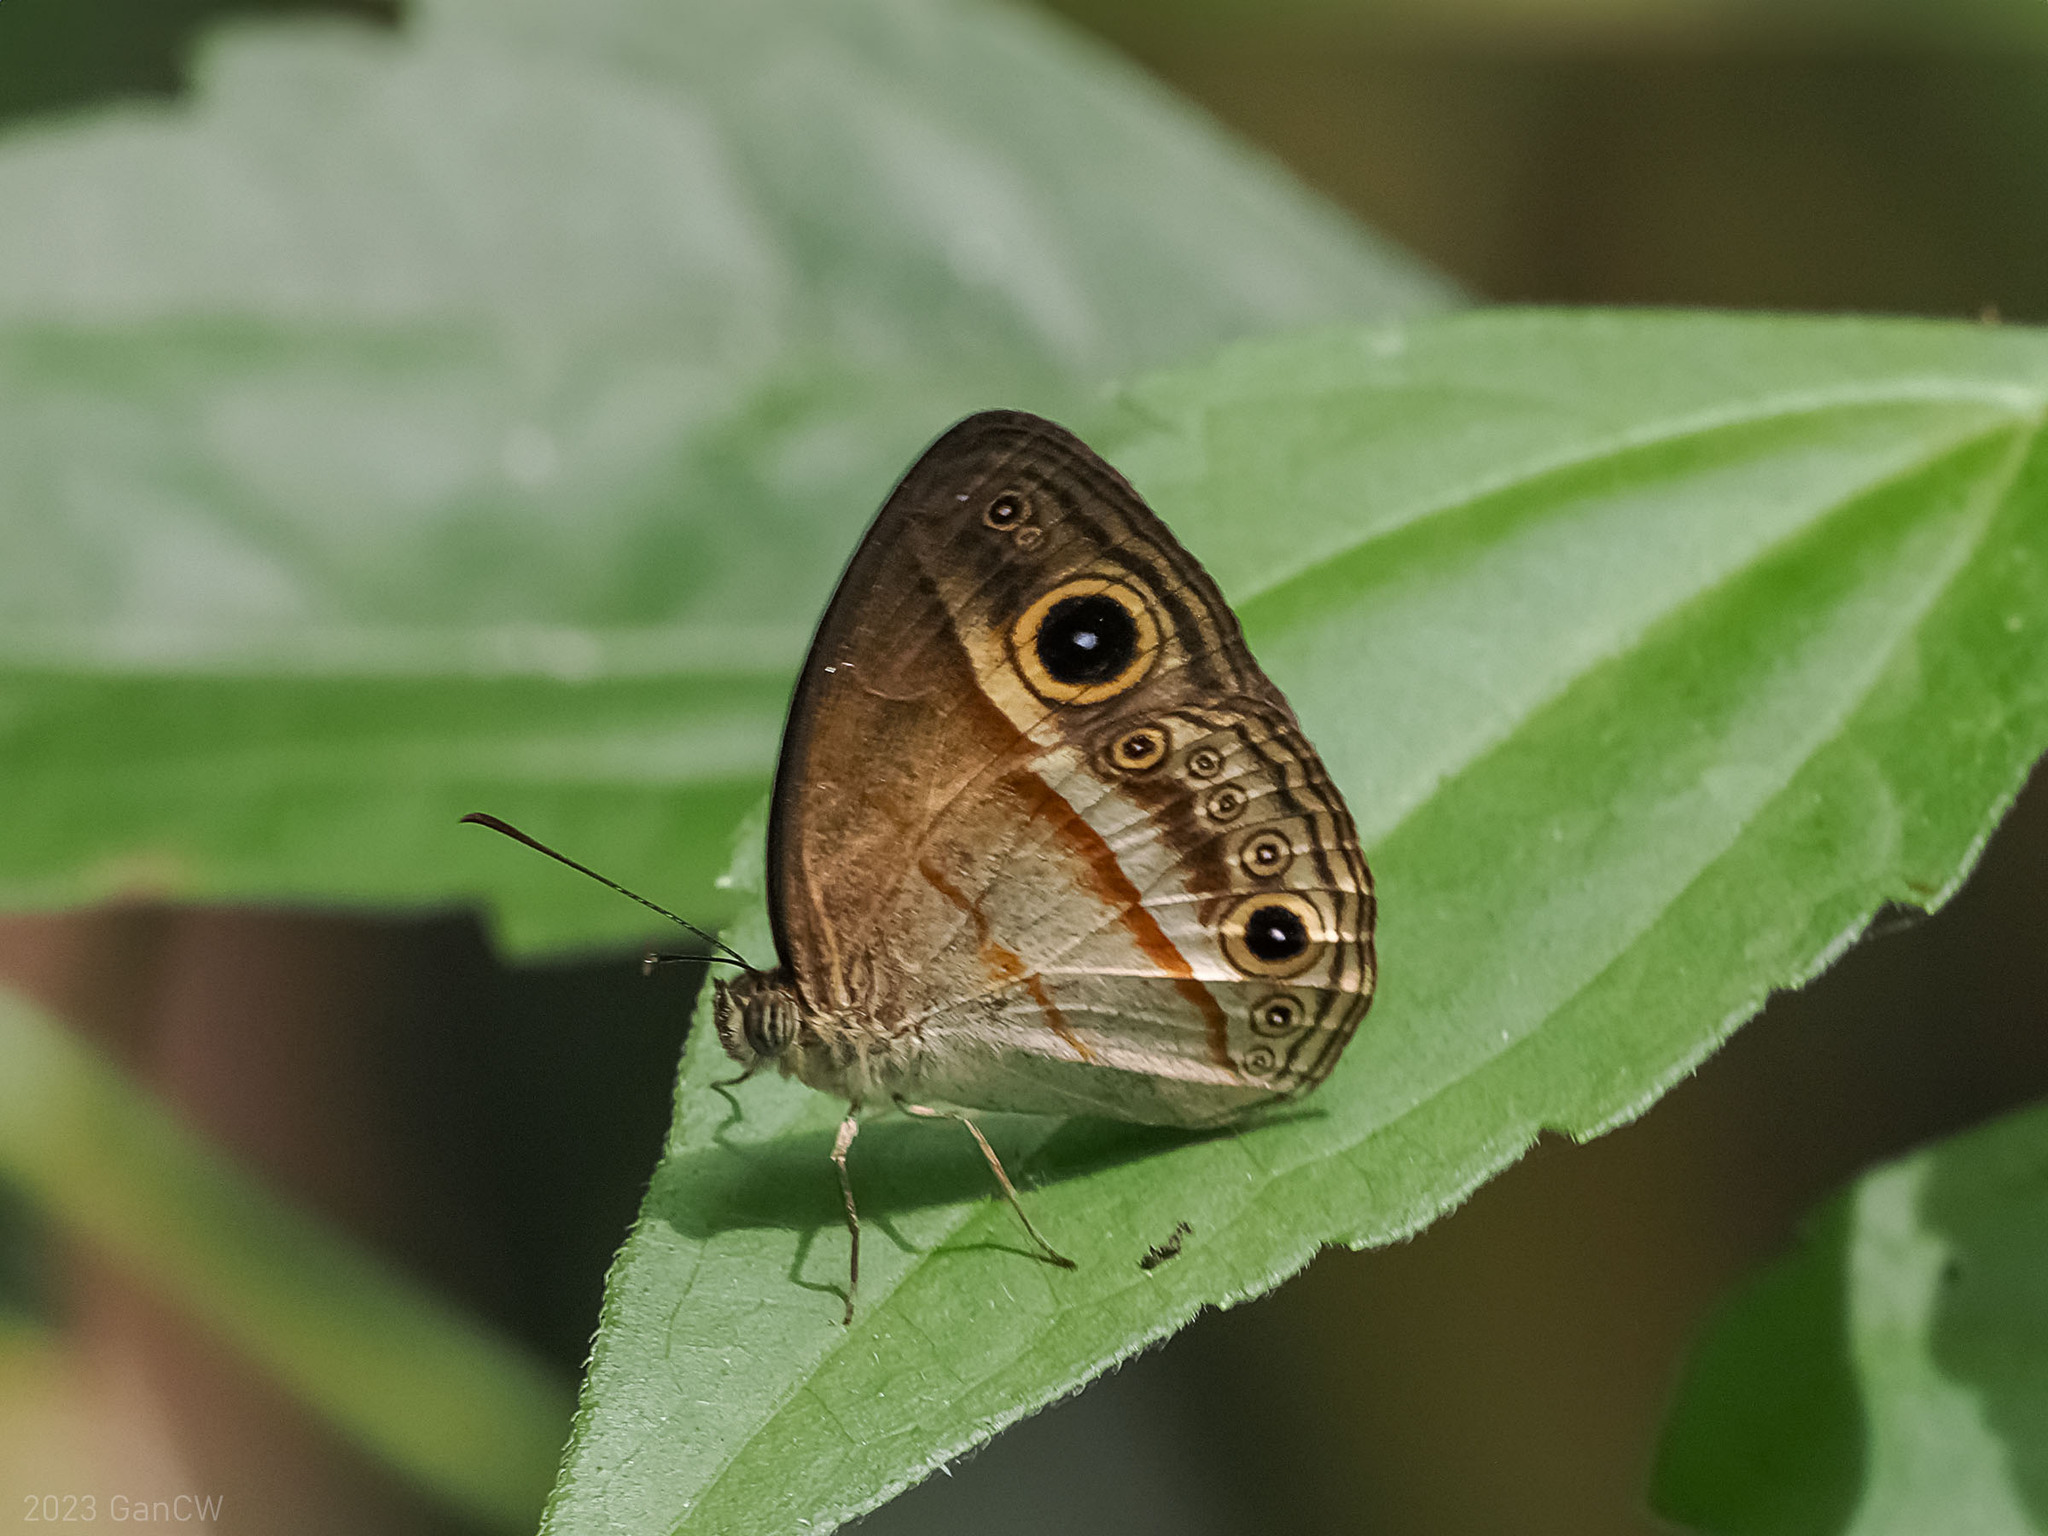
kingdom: Animalia
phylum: Arthropoda
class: Insecta
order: Lepidoptera
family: Nymphalidae
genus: Mycalesis
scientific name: Mycalesis ita
